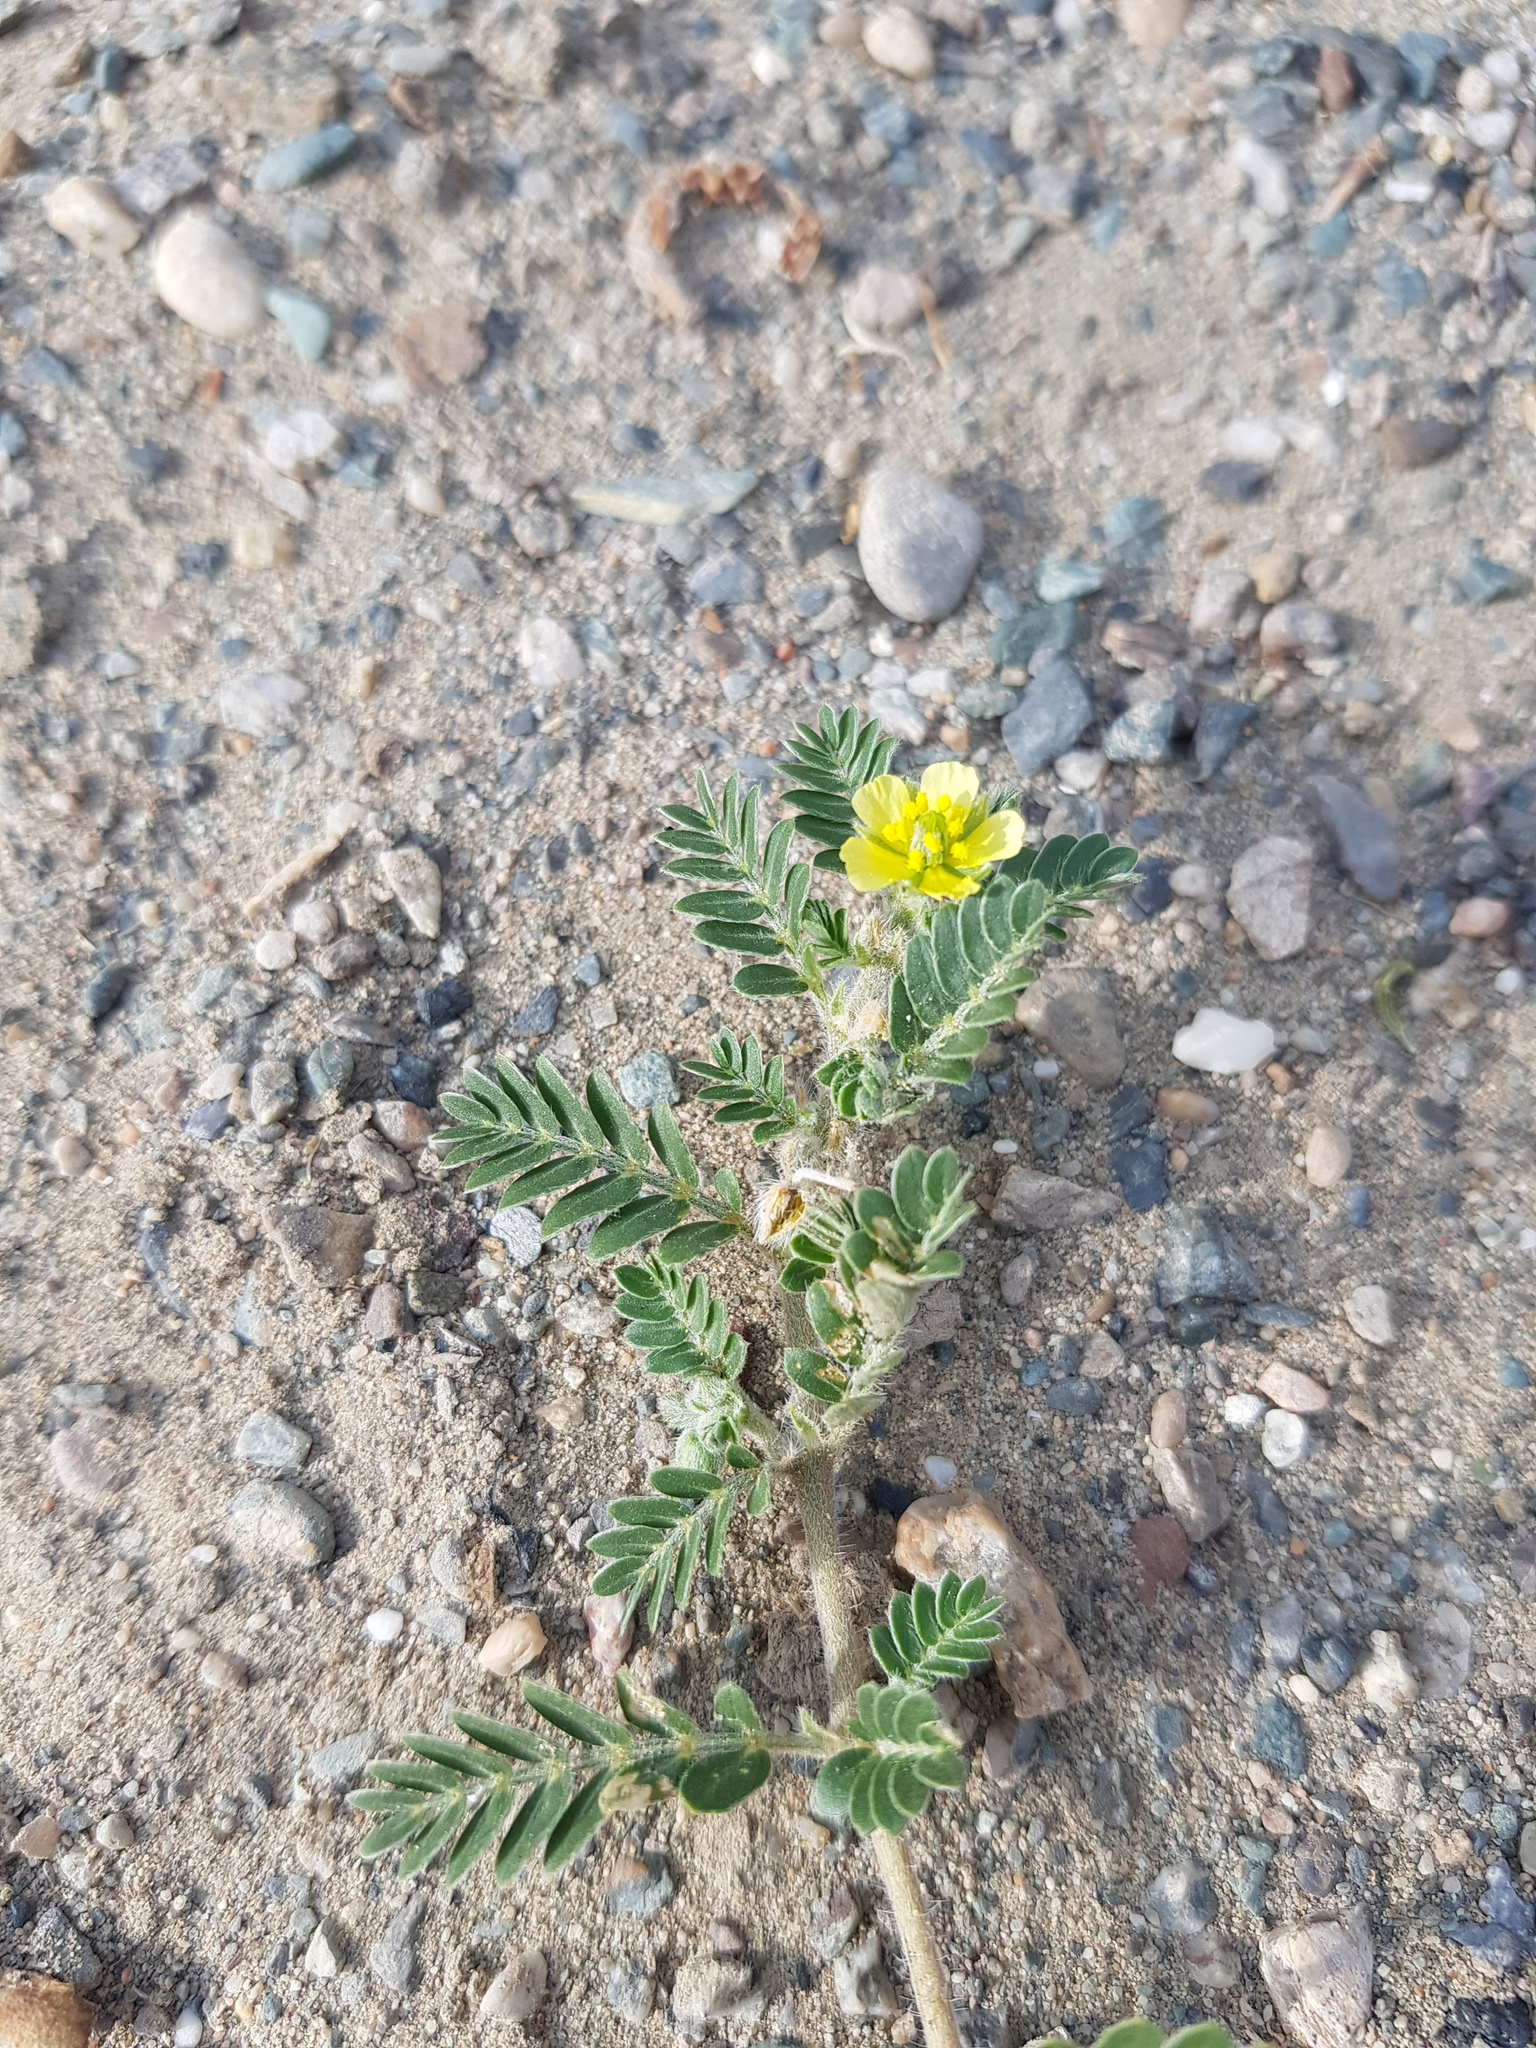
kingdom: Plantae
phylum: Tracheophyta
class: Magnoliopsida
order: Zygophyllales
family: Zygophyllaceae
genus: Tribulus
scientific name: Tribulus terrestris
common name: Puncturevine
